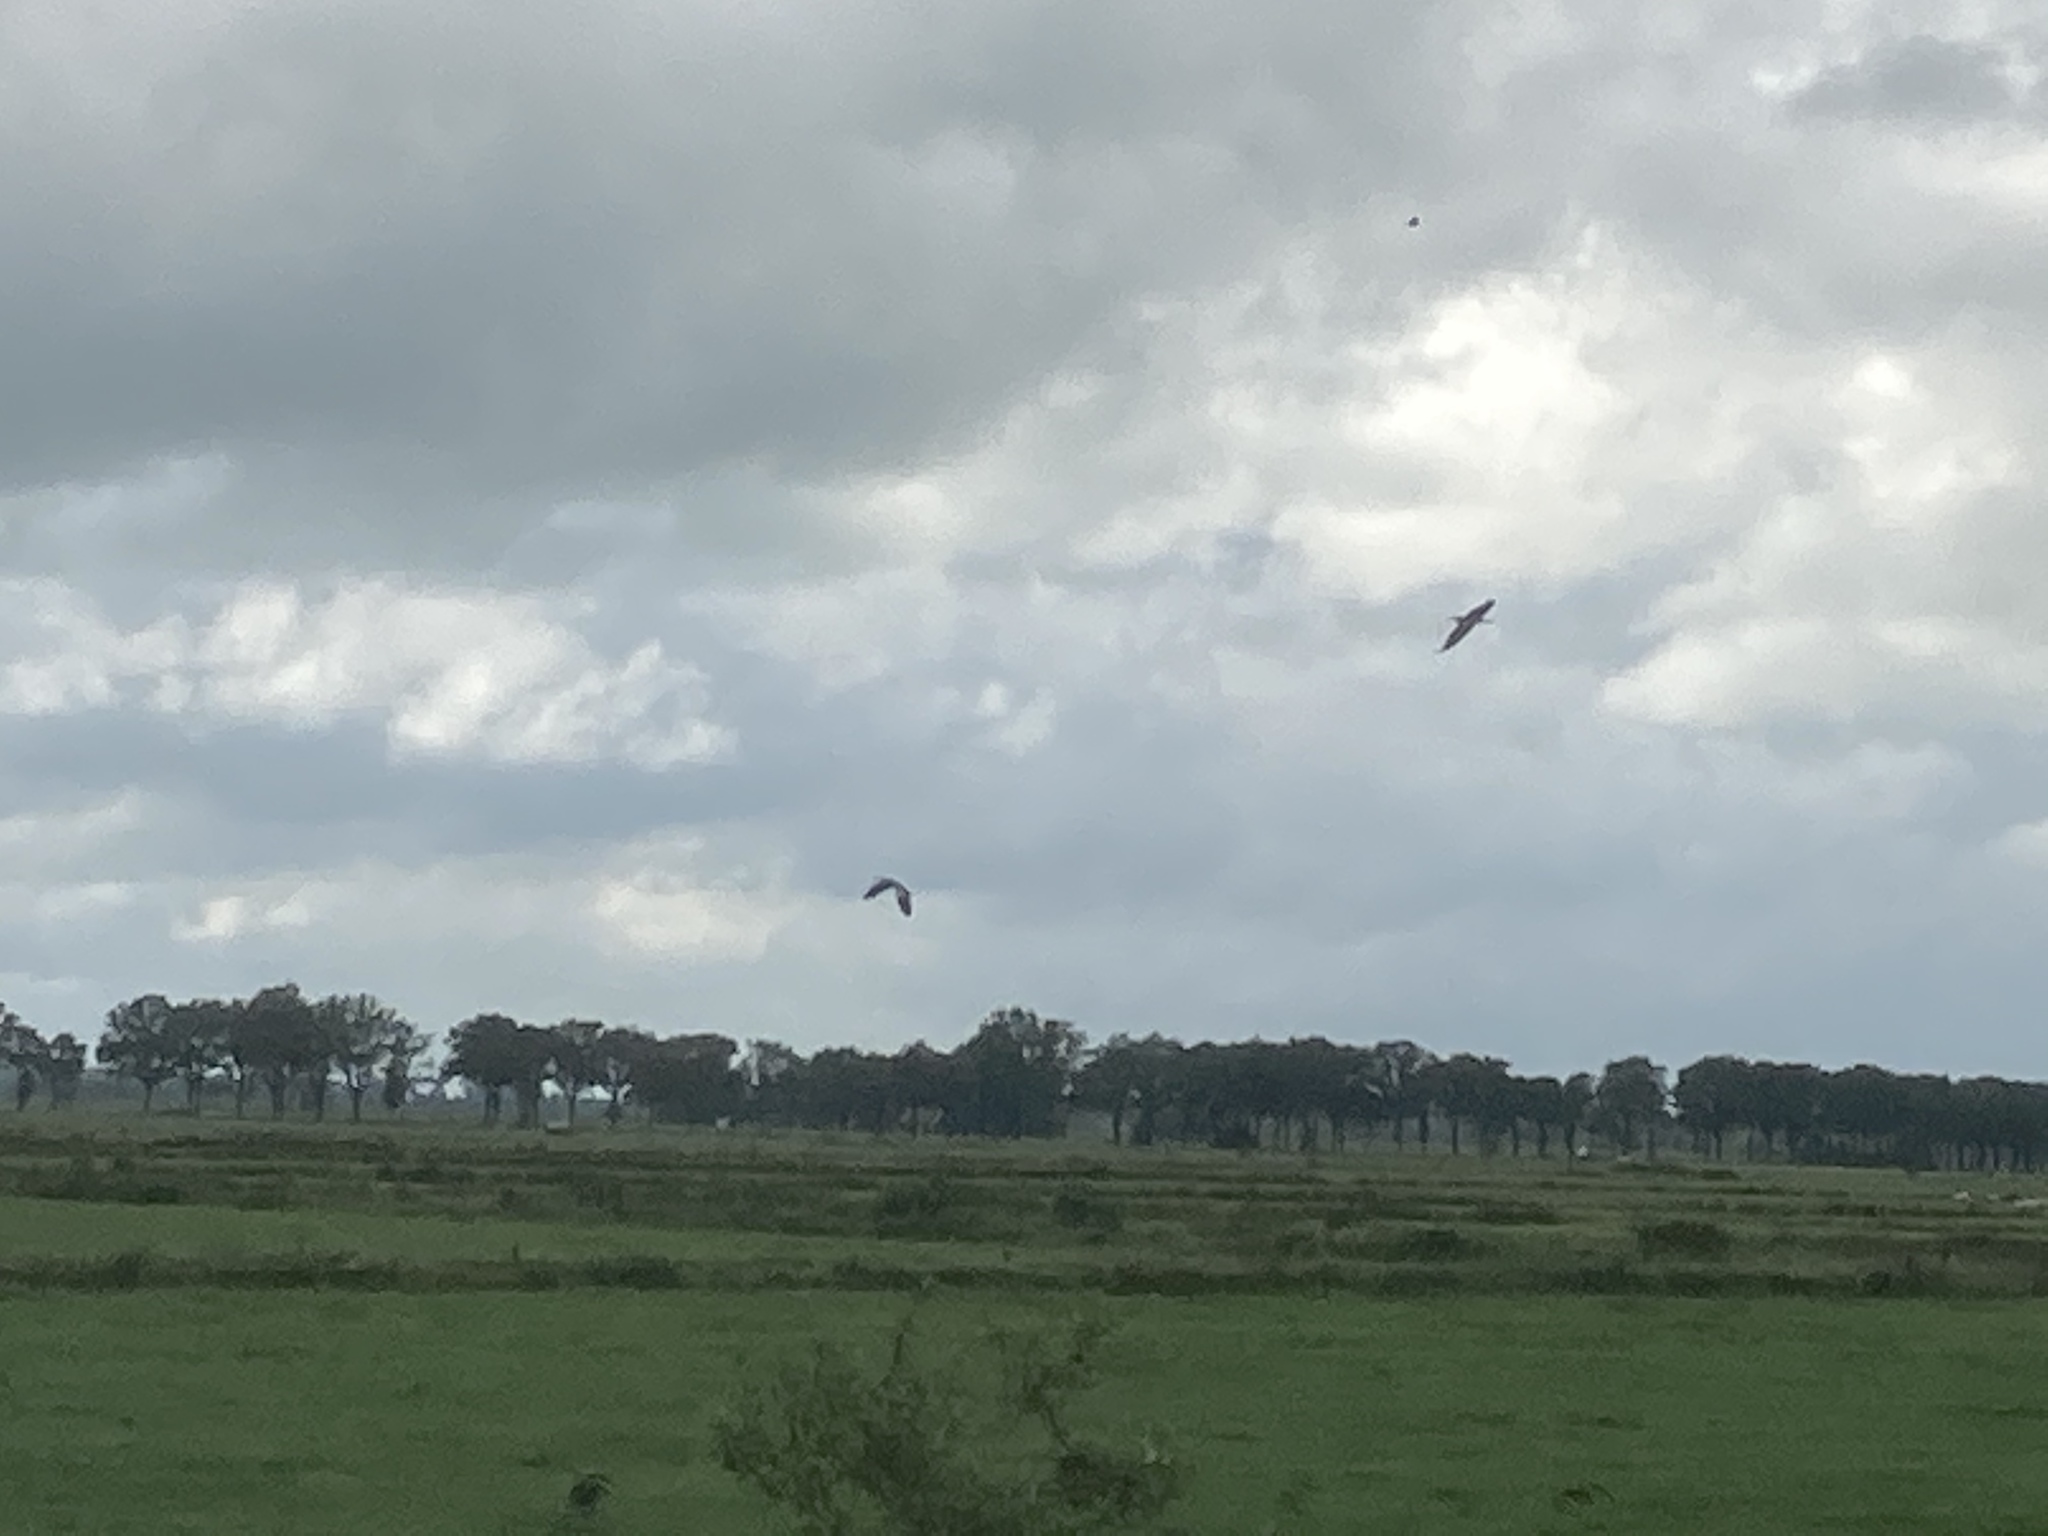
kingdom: Animalia
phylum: Chordata
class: Aves
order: Pelecaniformes
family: Ardeidae
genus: Ardea
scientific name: Ardea cinerea
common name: Grey heron
